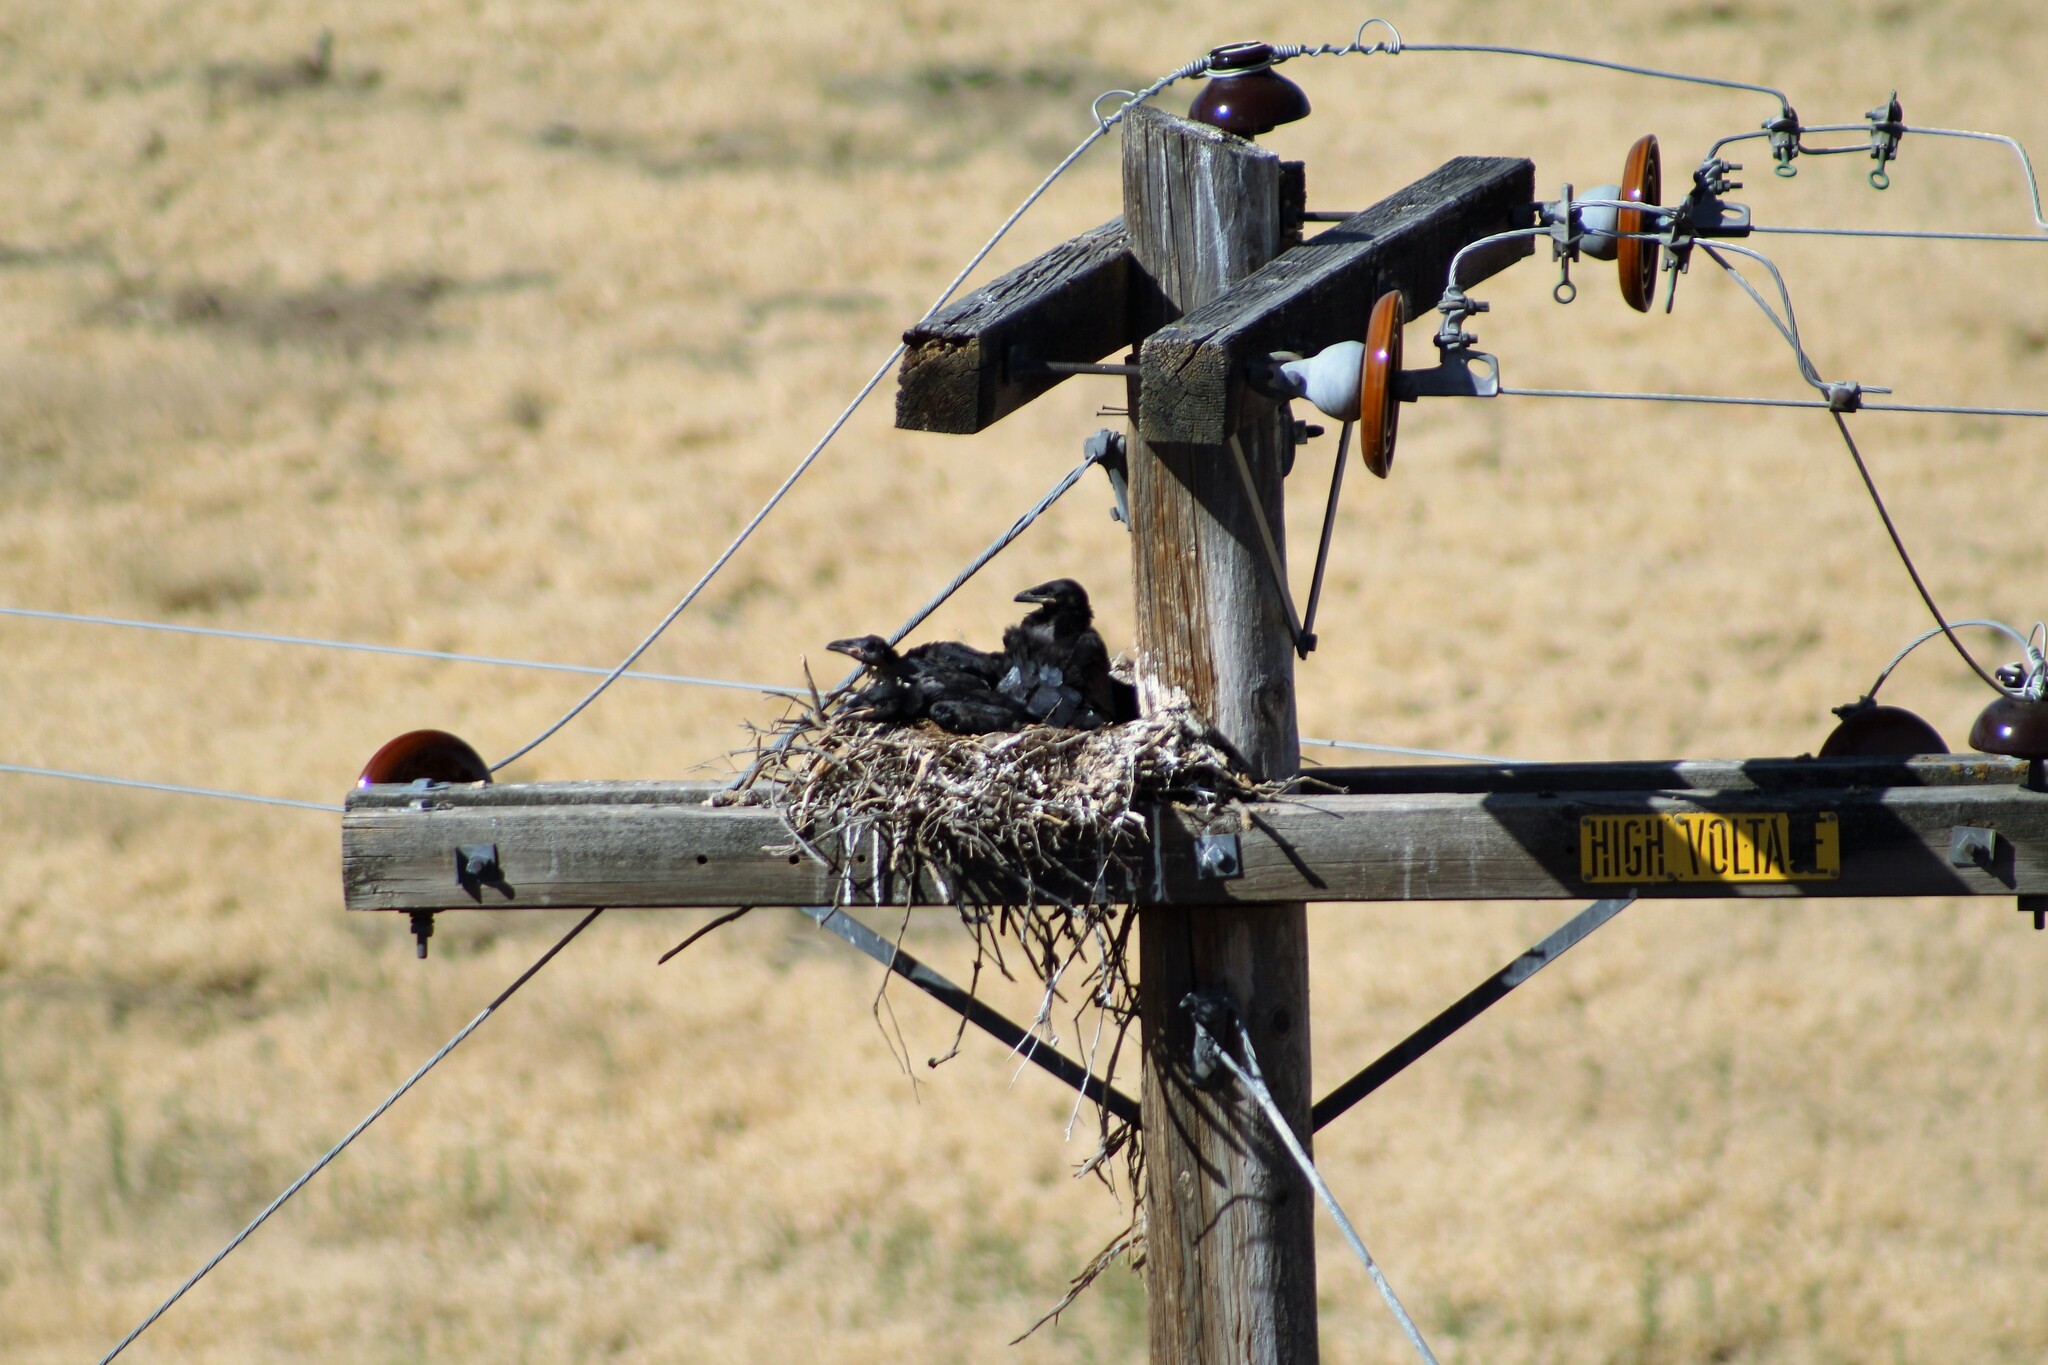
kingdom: Animalia
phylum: Chordata
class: Aves
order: Passeriformes
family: Corvidae
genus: Corvus
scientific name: Corvus corax
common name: Common raven
